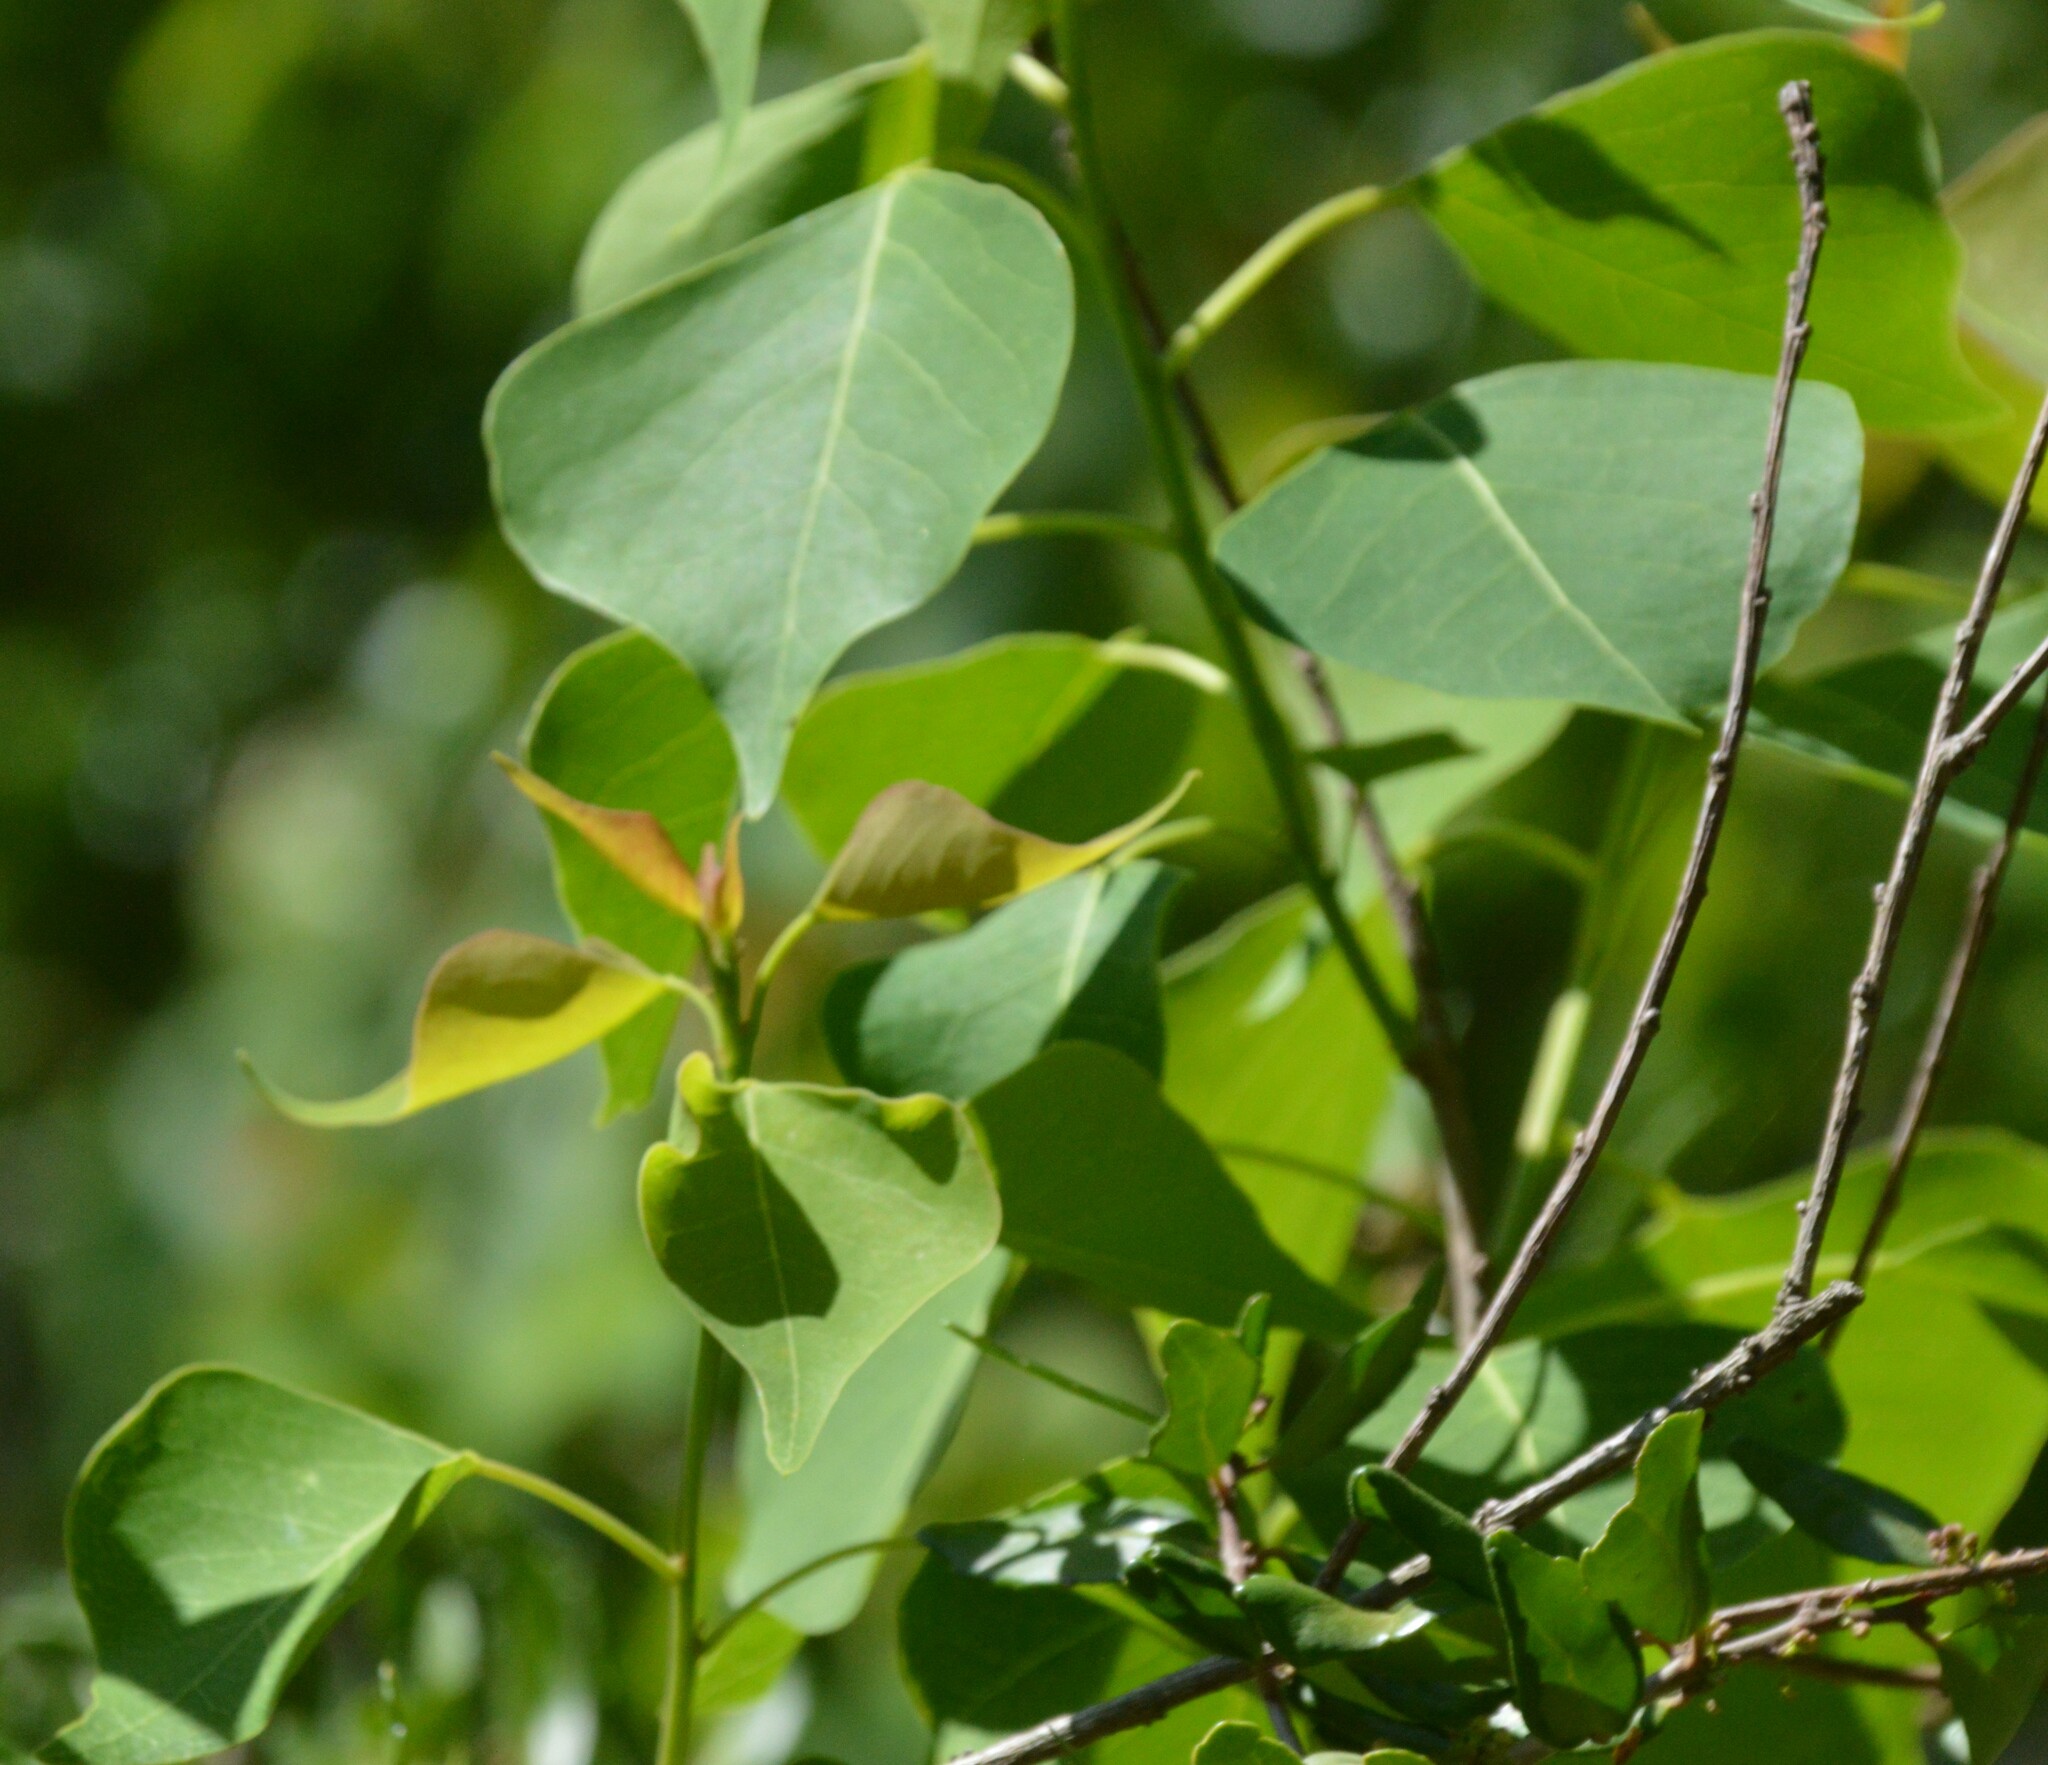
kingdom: Plantae
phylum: Tracheophyta
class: Magnoliopsida
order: Malpighiales
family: Euphorbiaceae
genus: Triadica
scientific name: Triadica sebifera
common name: Chinese tallow
